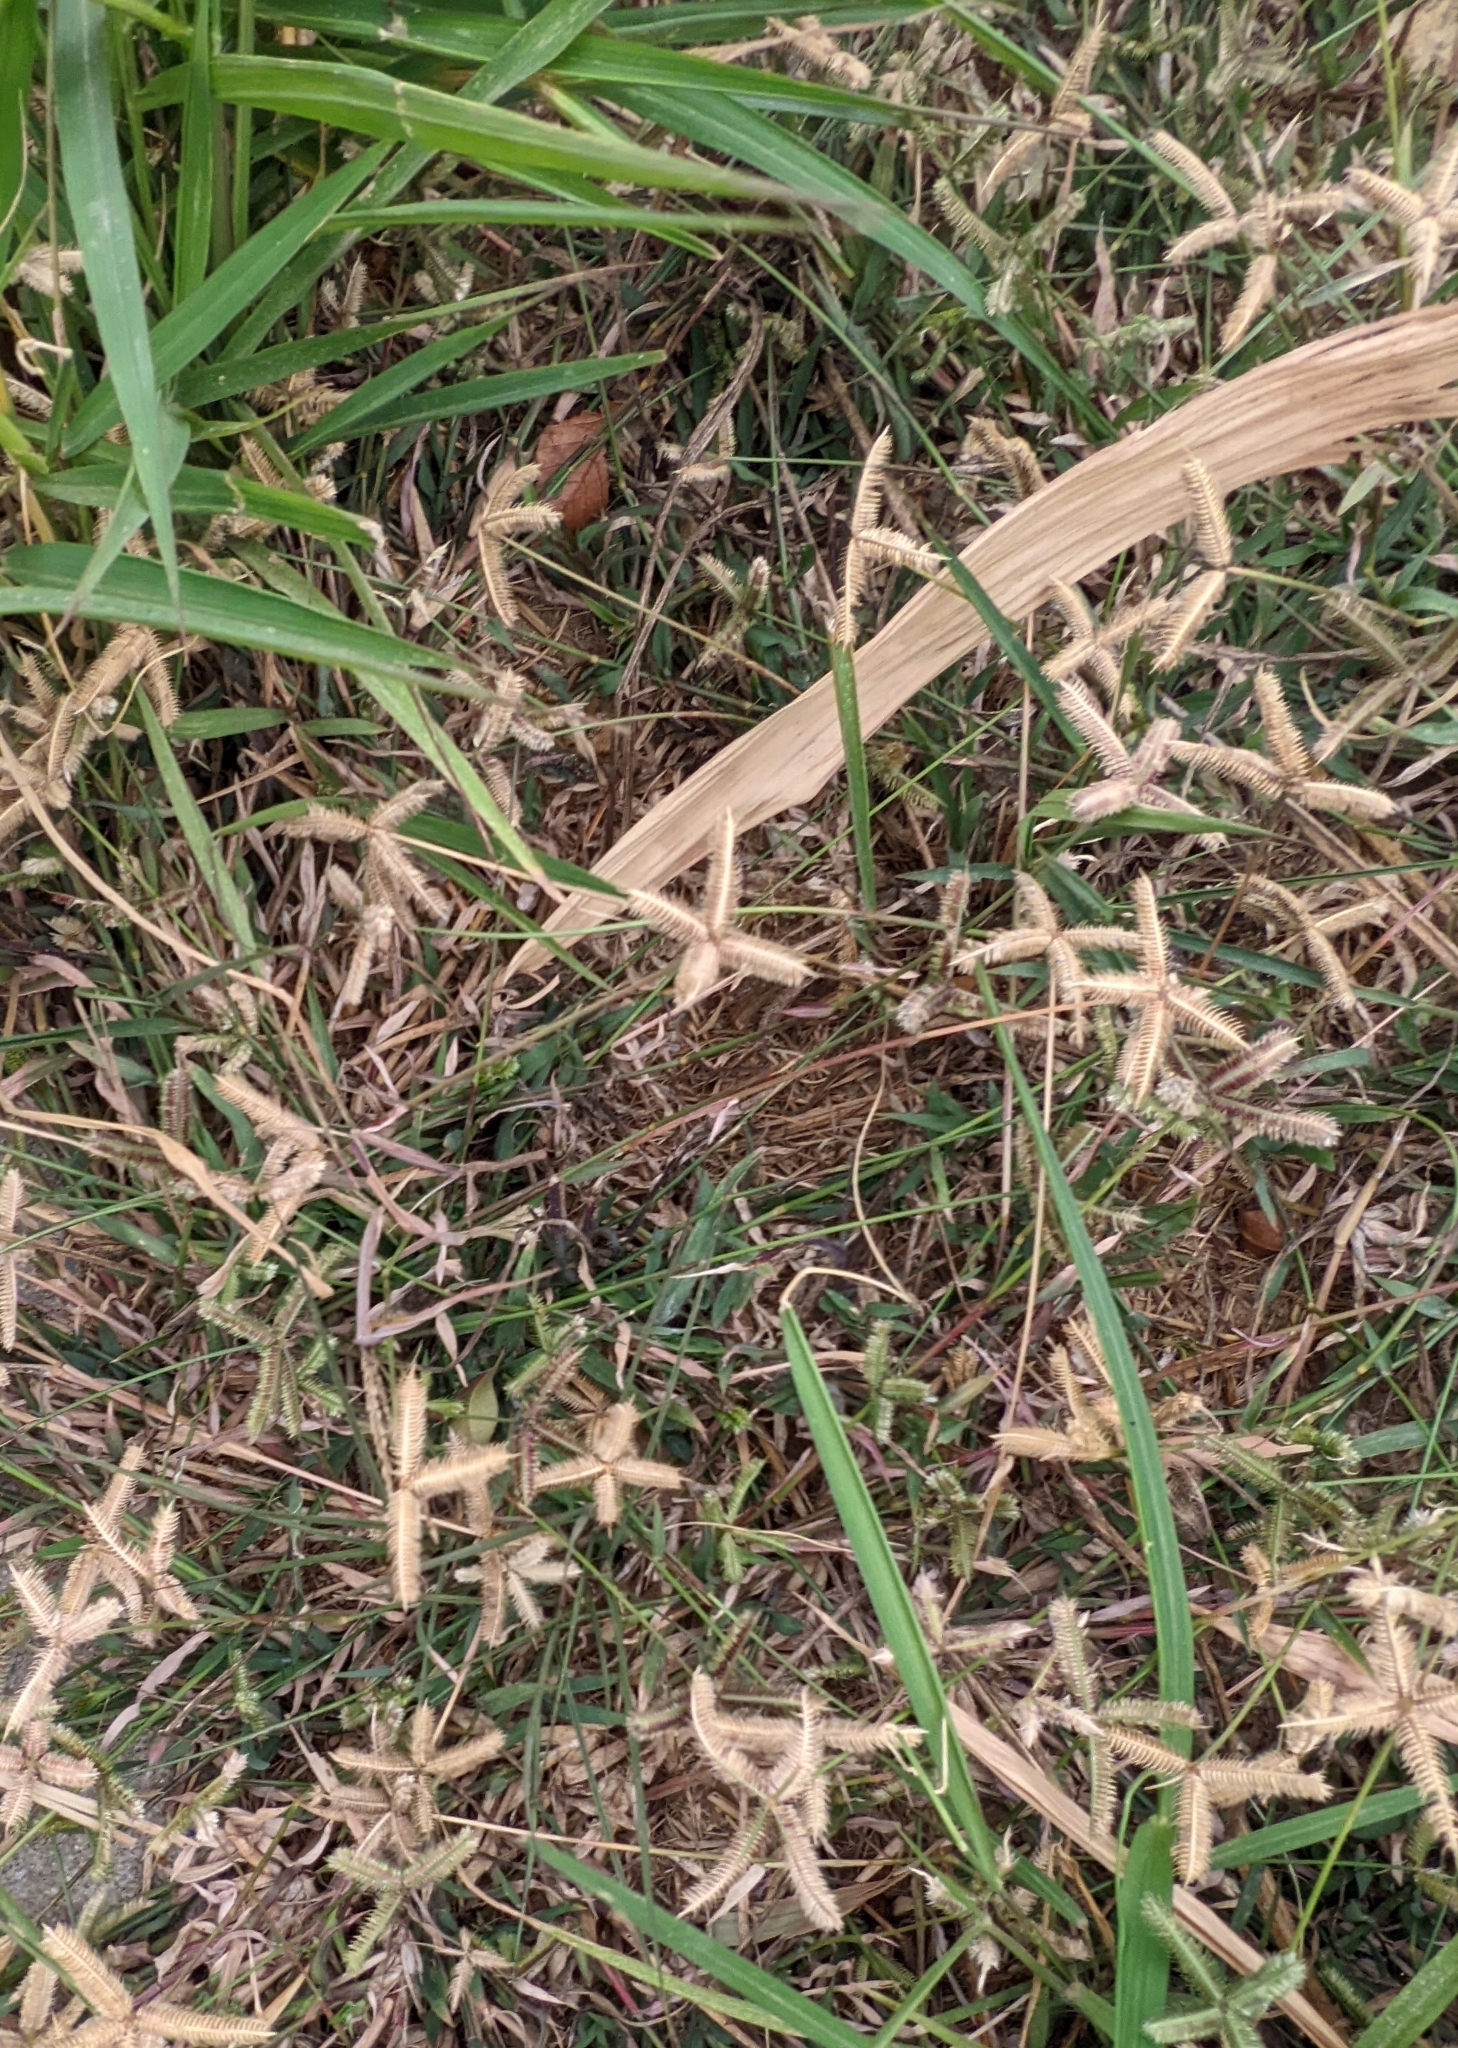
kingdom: Plantae
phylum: Tracheophyta
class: Liliopsida
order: Poales
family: Poaceae
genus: Dactyloctenium
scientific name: Dactyloctenium aegyptium
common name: Egyptian grass
